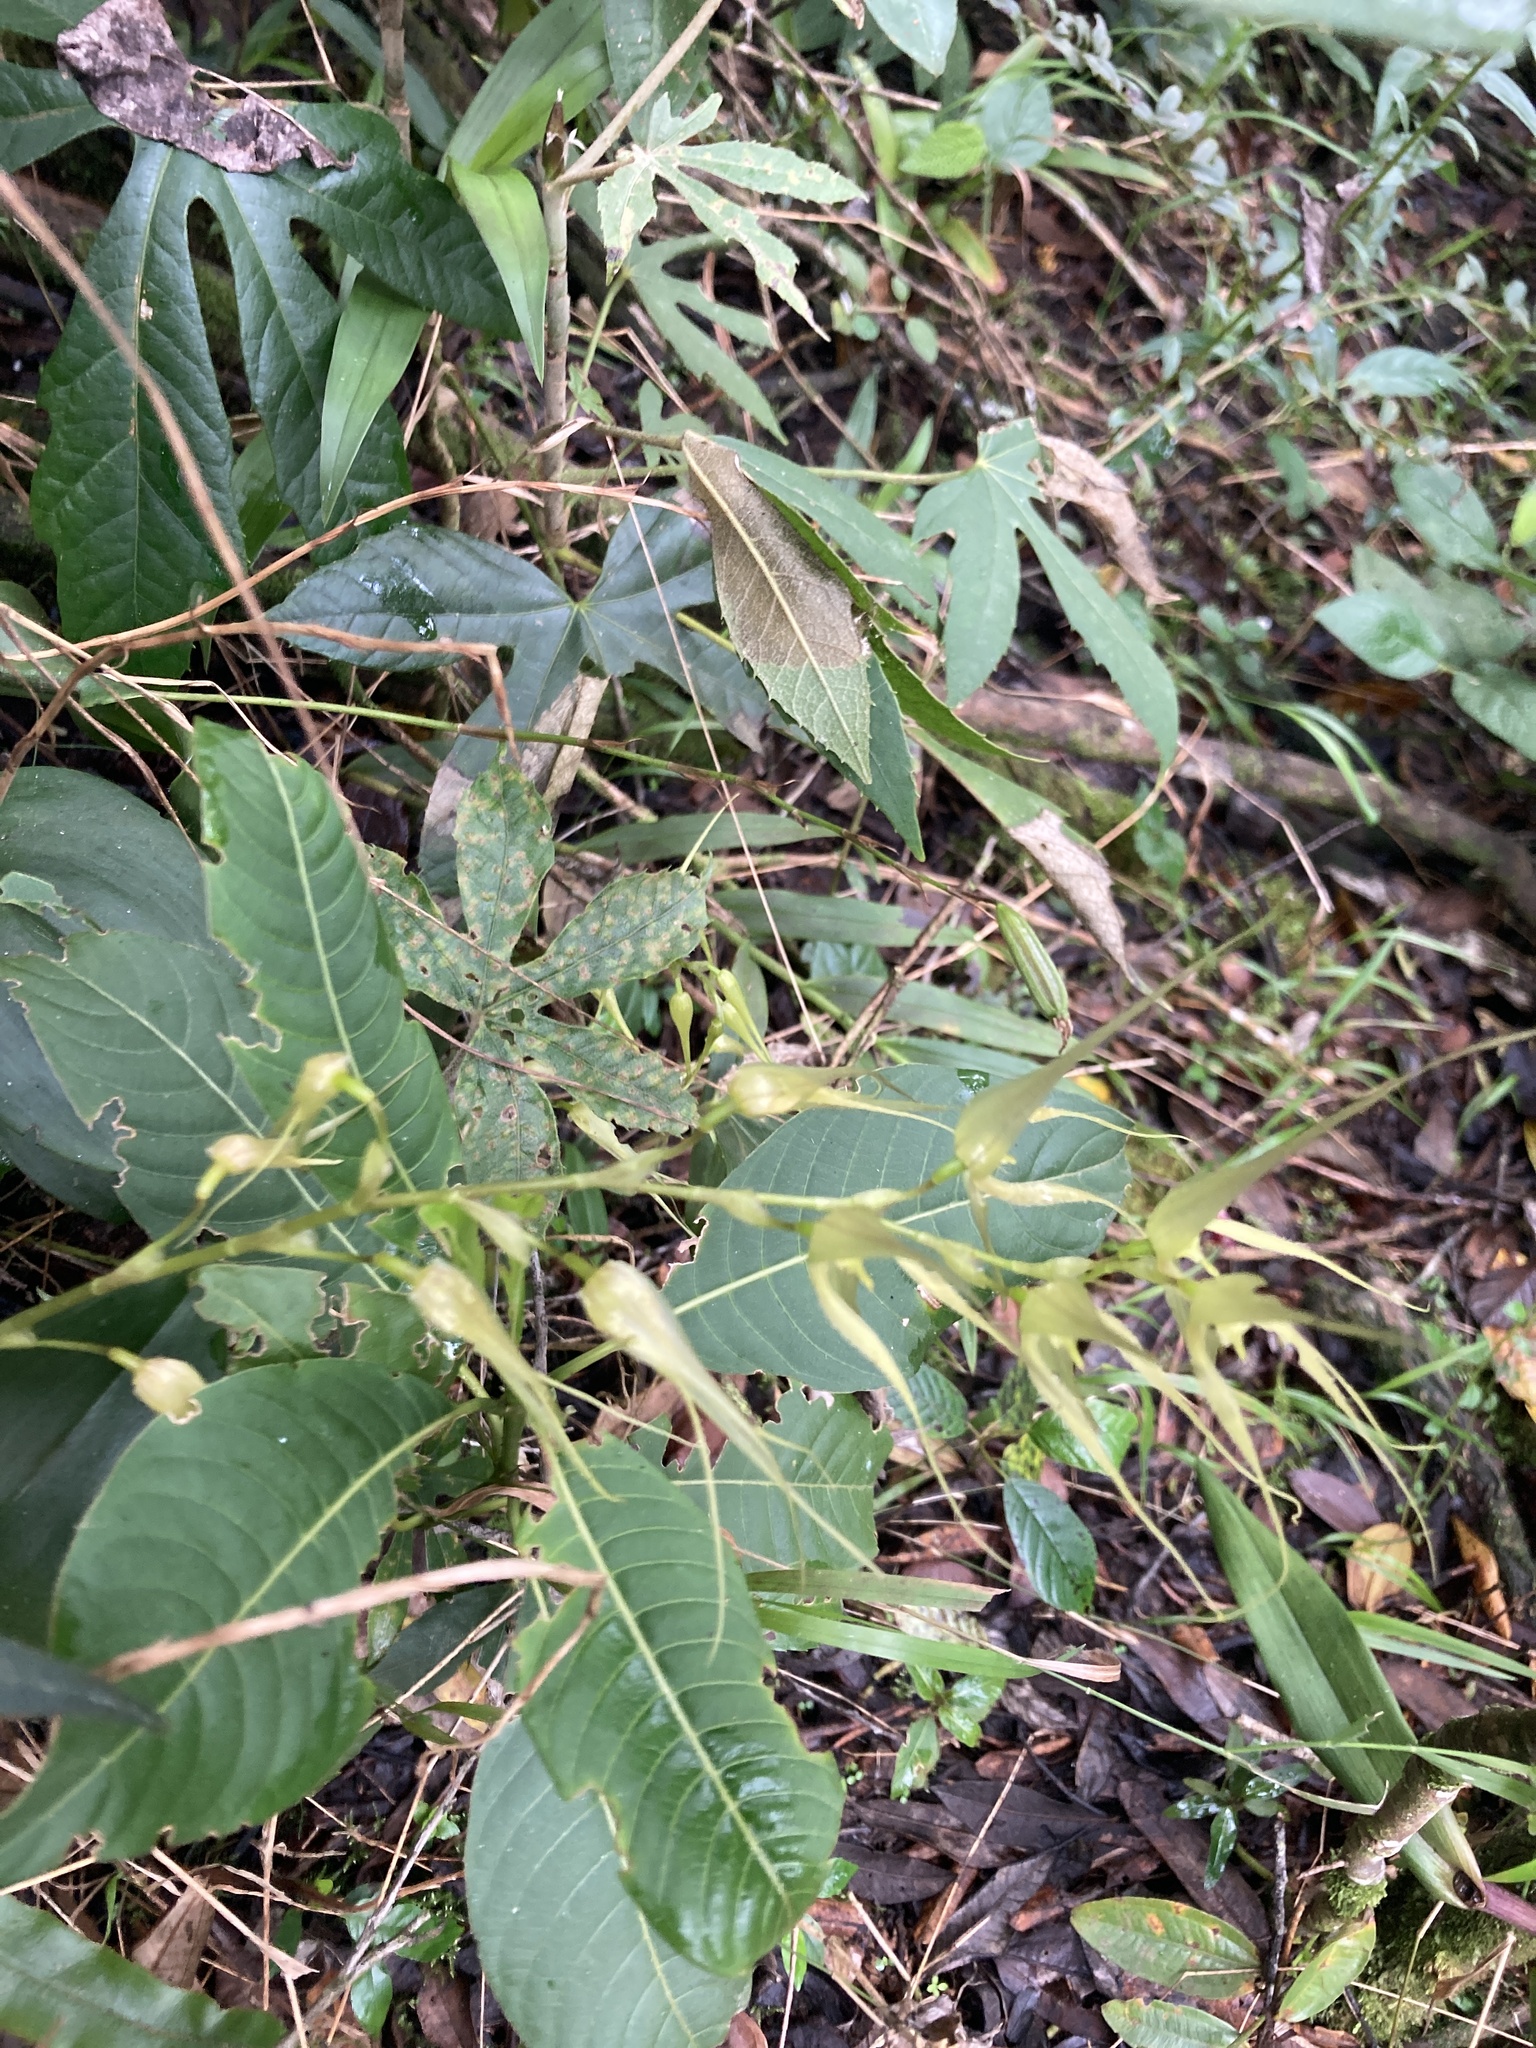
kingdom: Plantae
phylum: Tracheophyta
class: Liliopsida
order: Asparagales
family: Orchidaceae
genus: Pleurothallis
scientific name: Pleurothallis phalangifera
